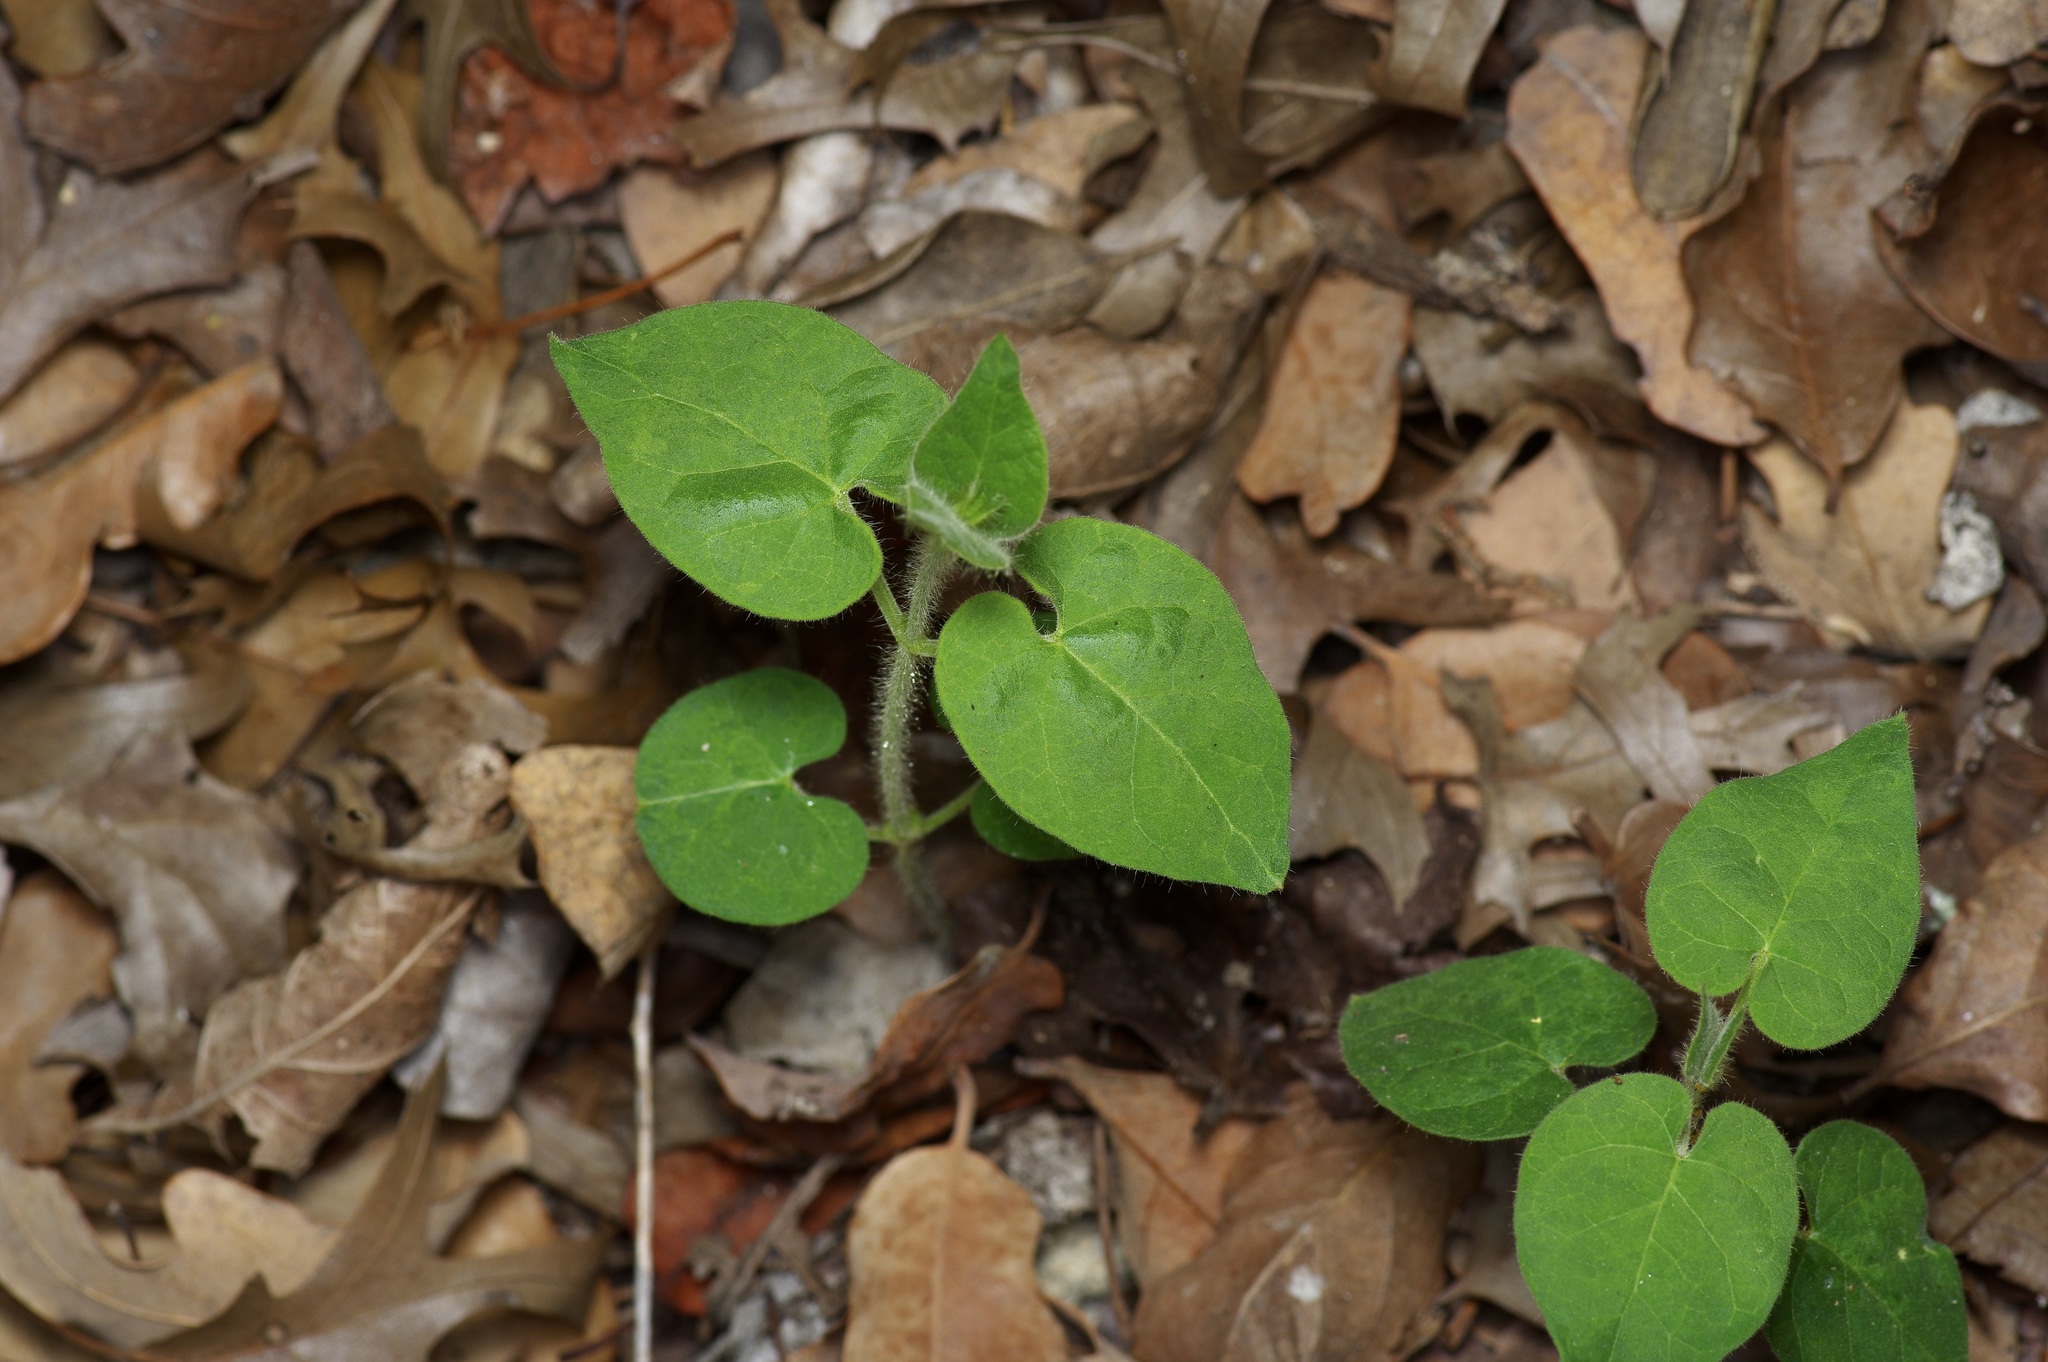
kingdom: Plantae
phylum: Tracheophyta
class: Magnoliopsida
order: Gentianales
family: Apocynaceae
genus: Dictyanthus
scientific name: Dictyanthus reticulatus
